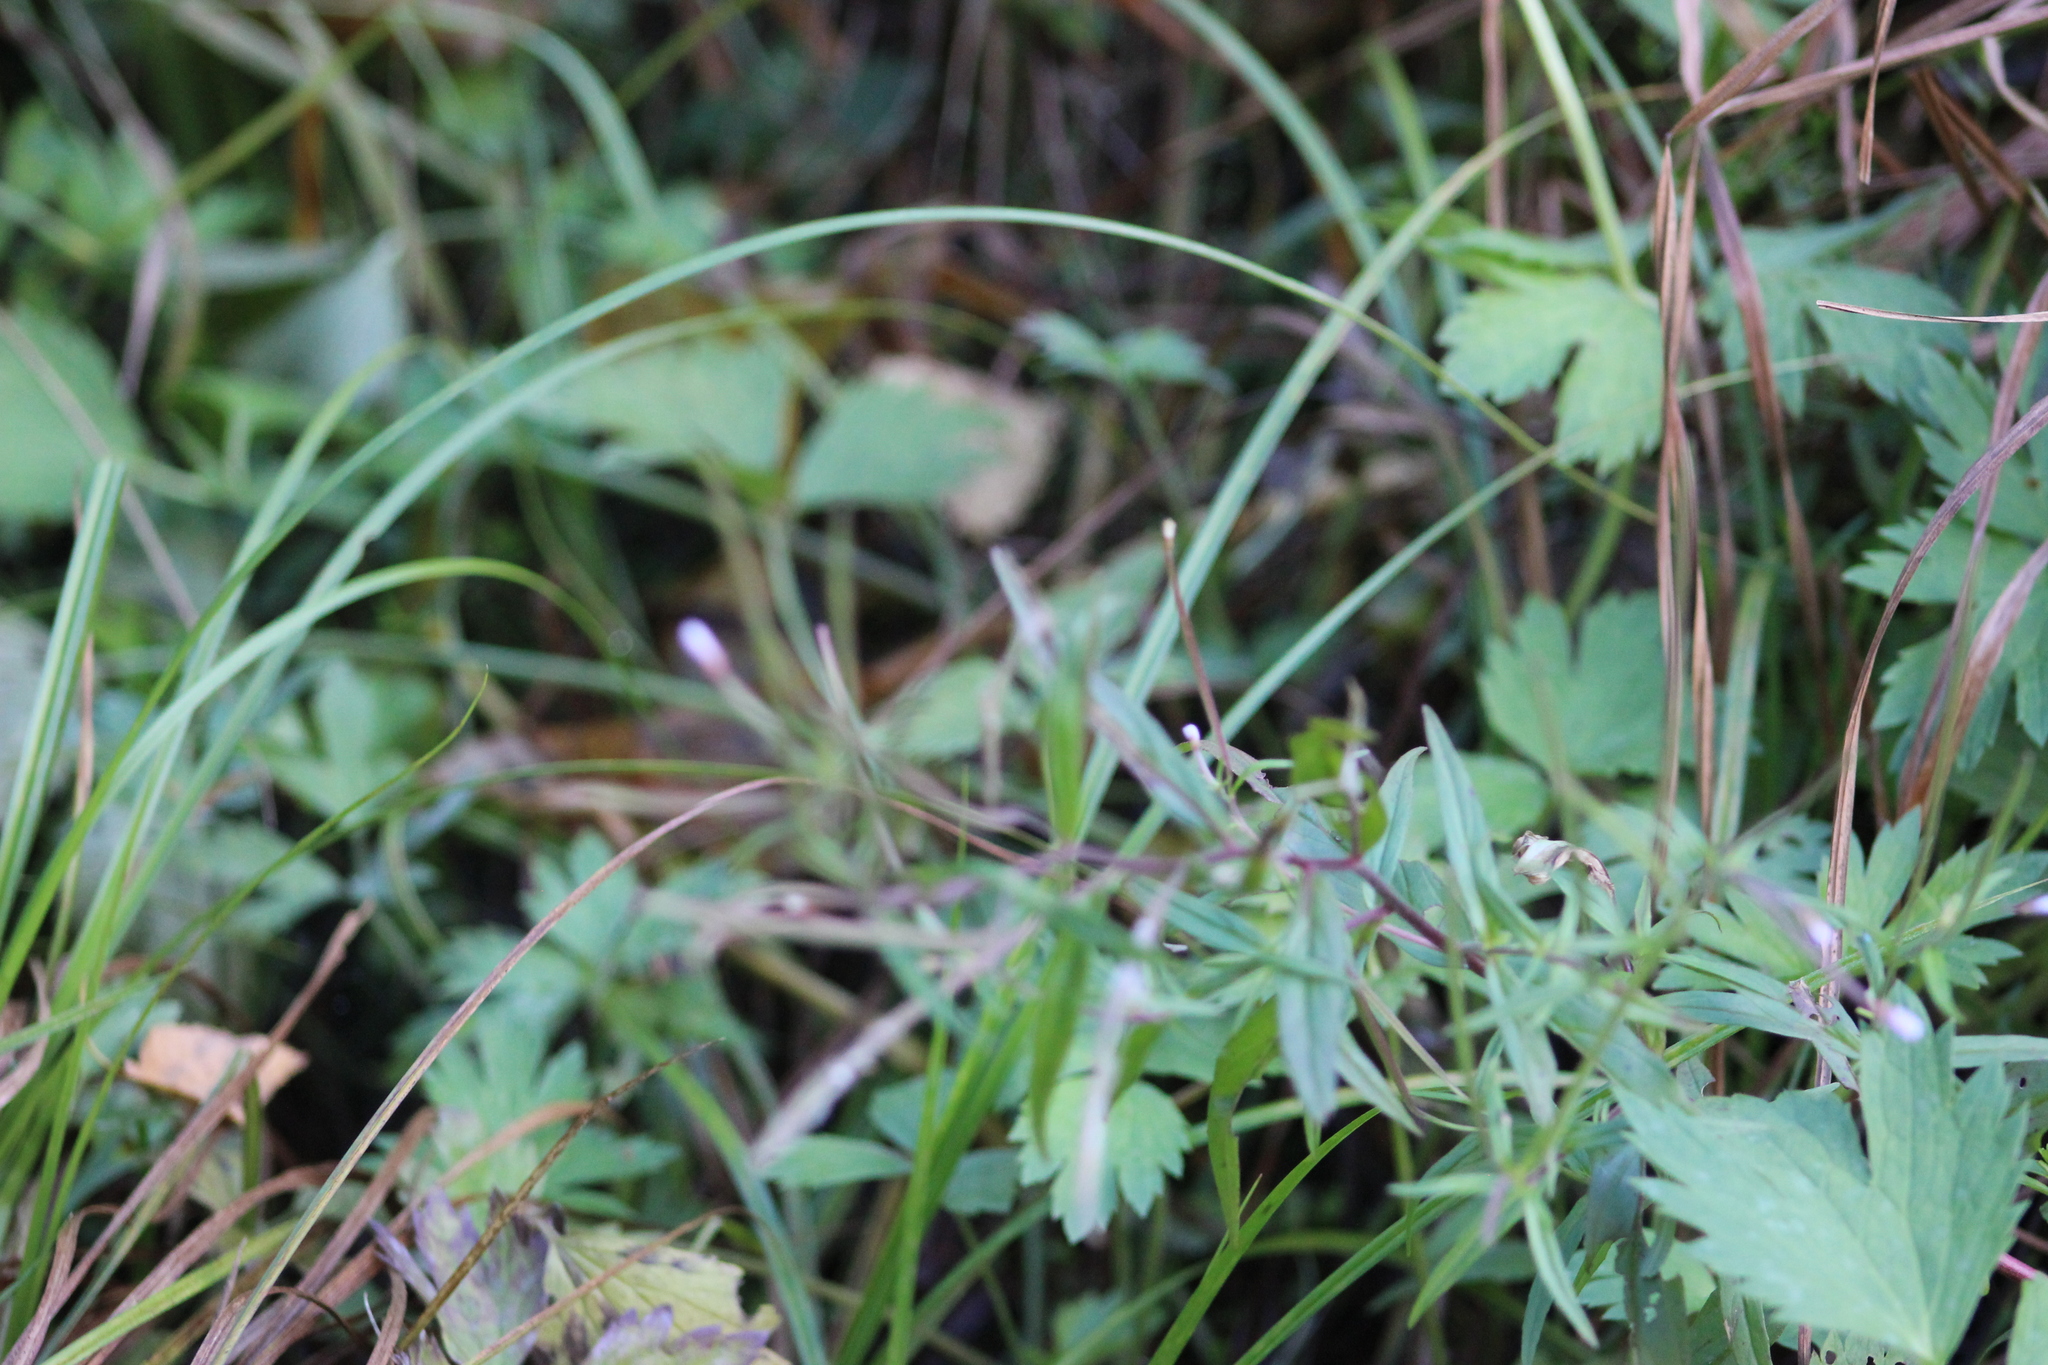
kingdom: Plantae
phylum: Tracheophyta
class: Magnoliopsida
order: Myrtales
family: Onagraceae
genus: Epilobium
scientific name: Epilobium palustre
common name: Marsh willowherb
